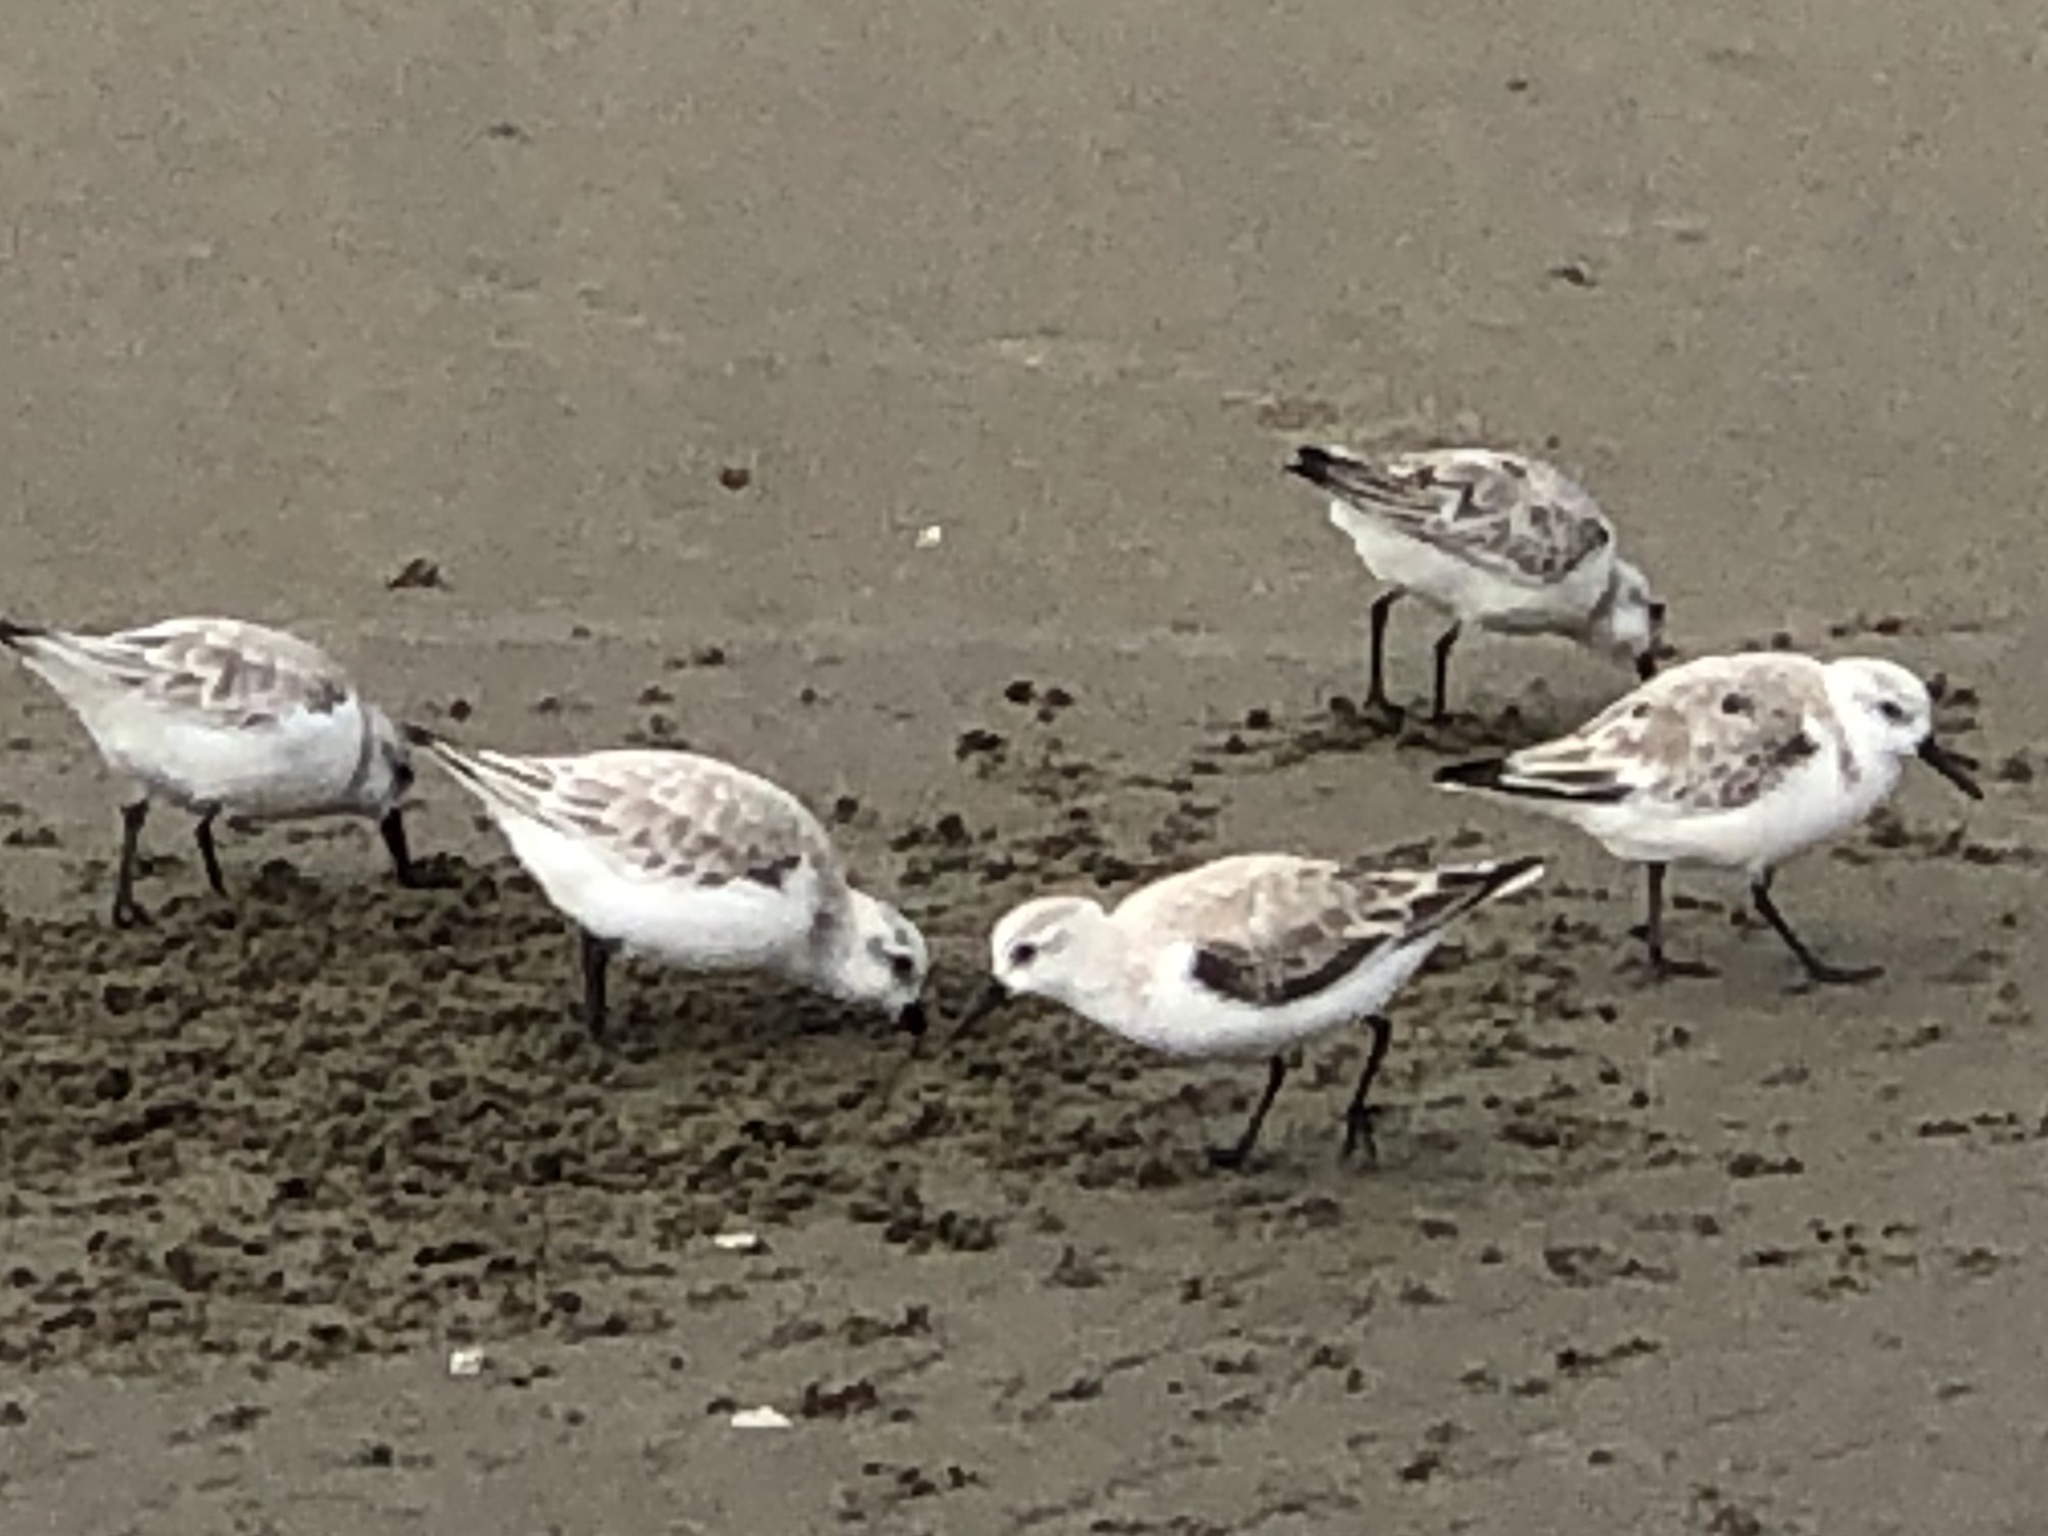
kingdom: Animalia
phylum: Chordata
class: Aves
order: Charadriiformes
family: Scolopacidae
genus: Calidris
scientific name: Calidris alba
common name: Sanderling
